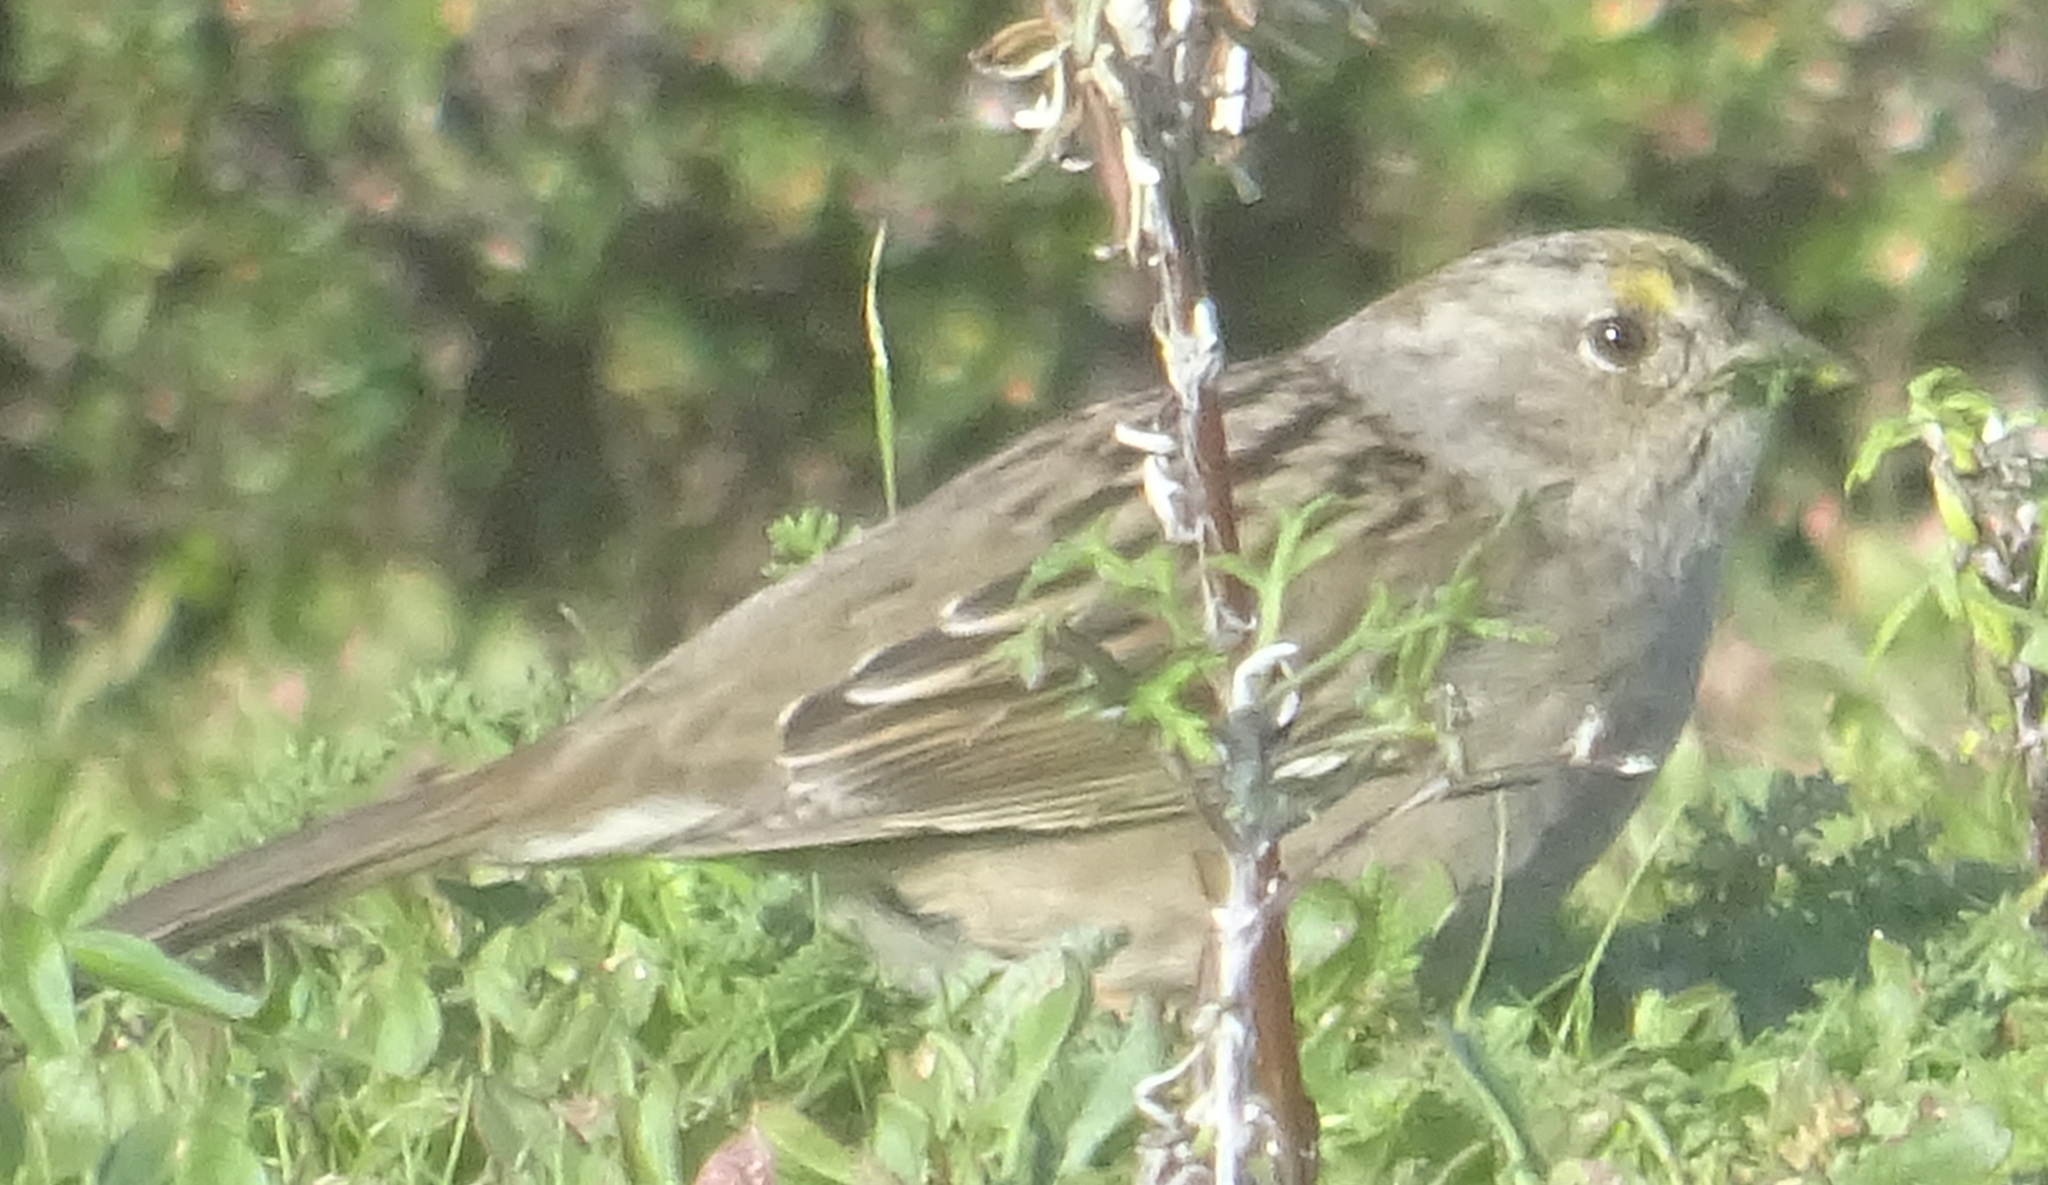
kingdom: Animalia
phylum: Chordata
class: Aves
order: Passeriformes
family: Passerellidae
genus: Zonotrichia
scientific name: Zonotrichia atricapilla
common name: Golden-crowned sparrow
